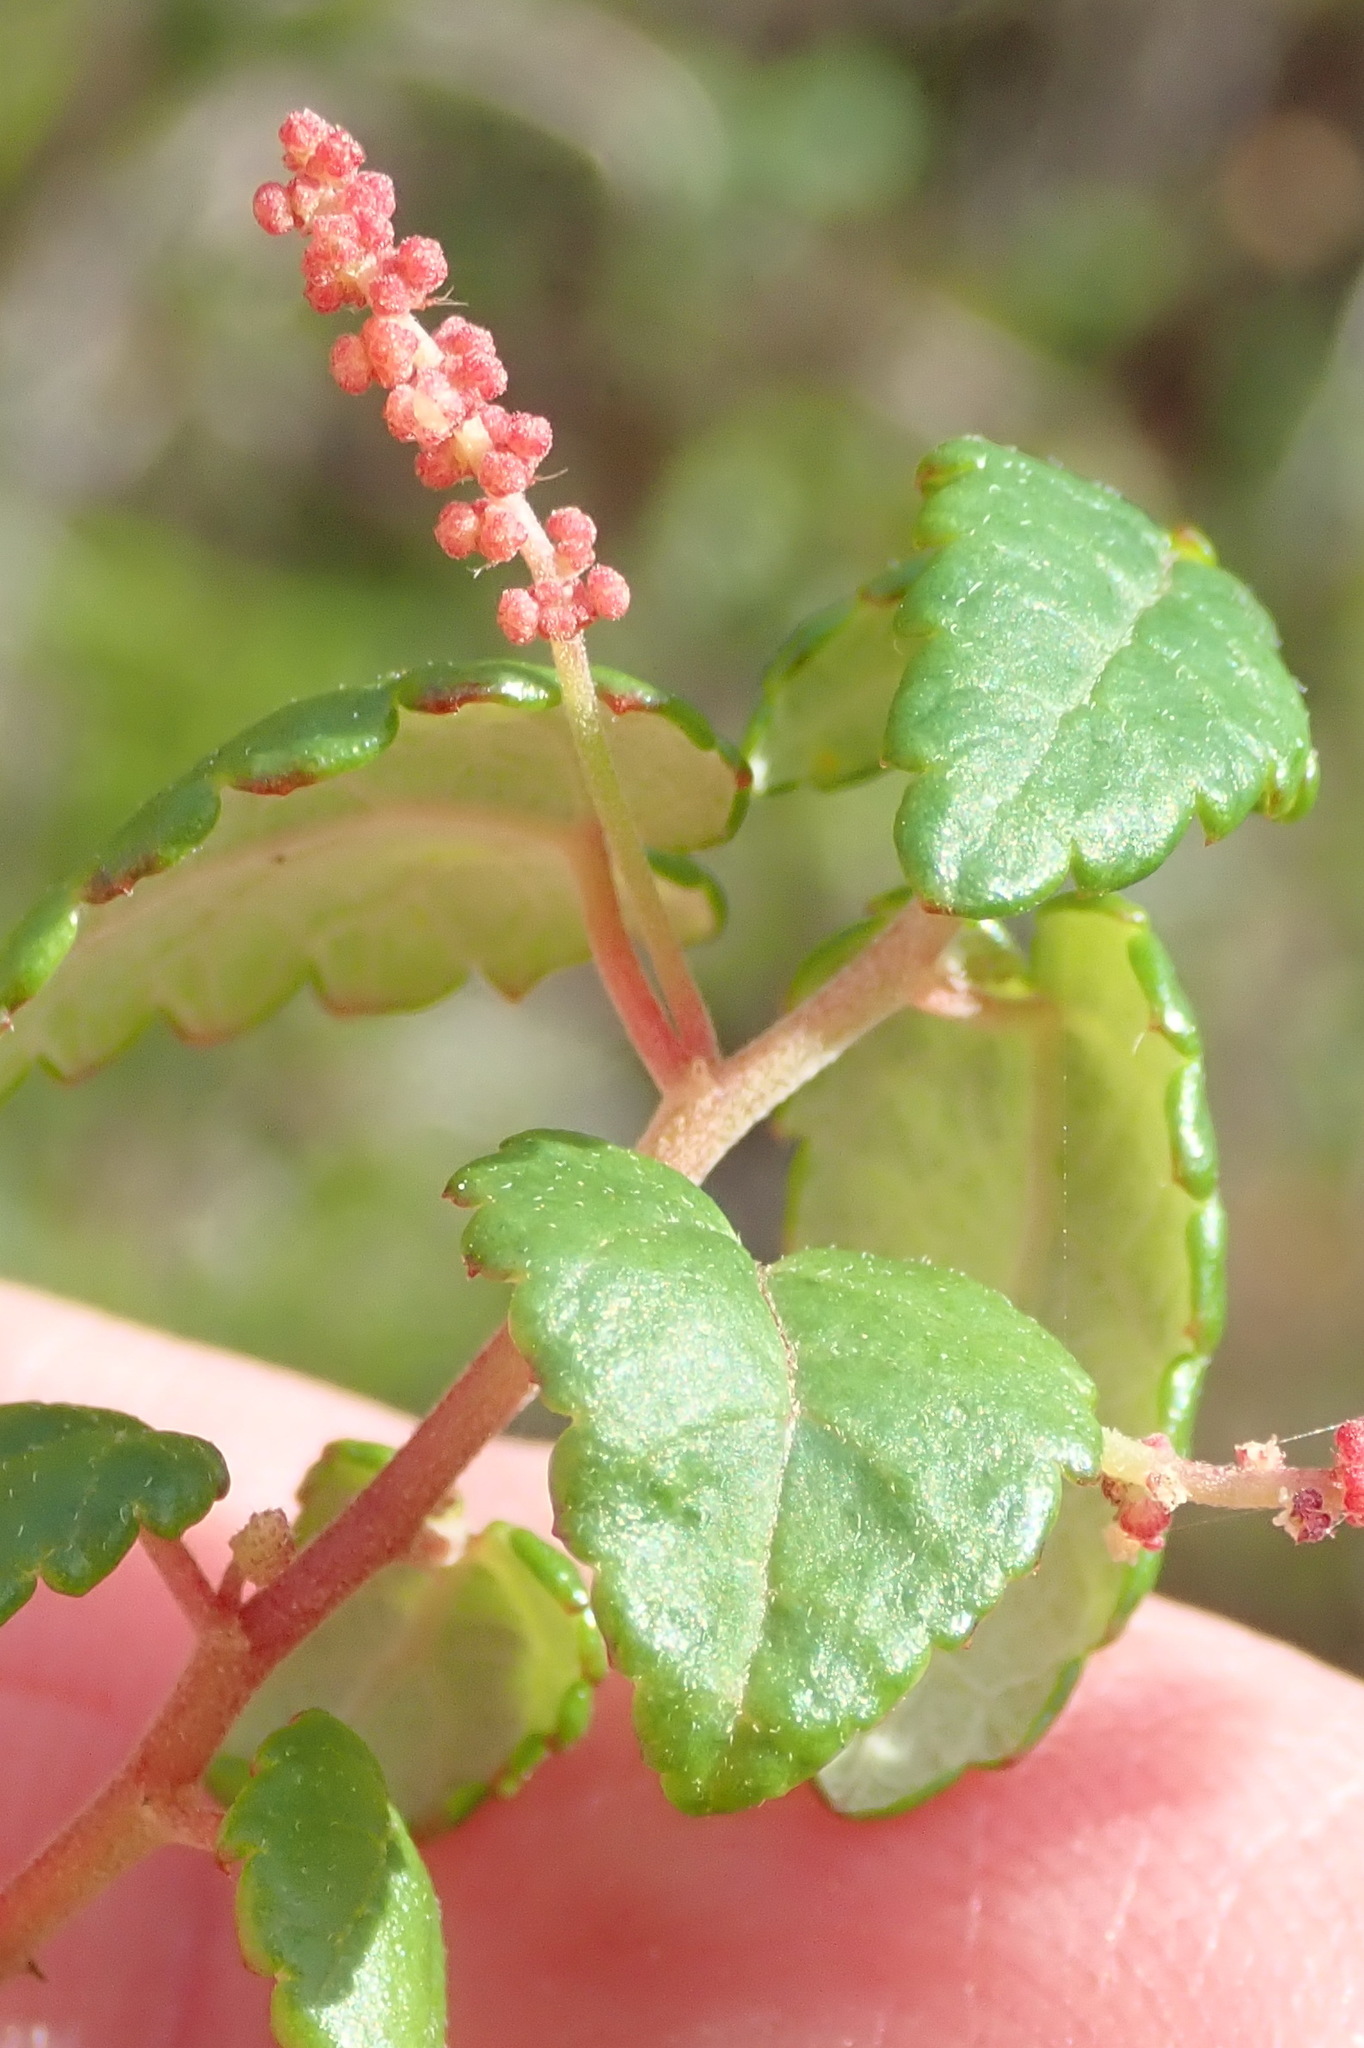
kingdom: Plantae
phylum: Tracheophyta
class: Magnoliopsida
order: Malpighiales
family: Euphorbiaceae
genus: Bernardia
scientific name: Bernardia corensis
